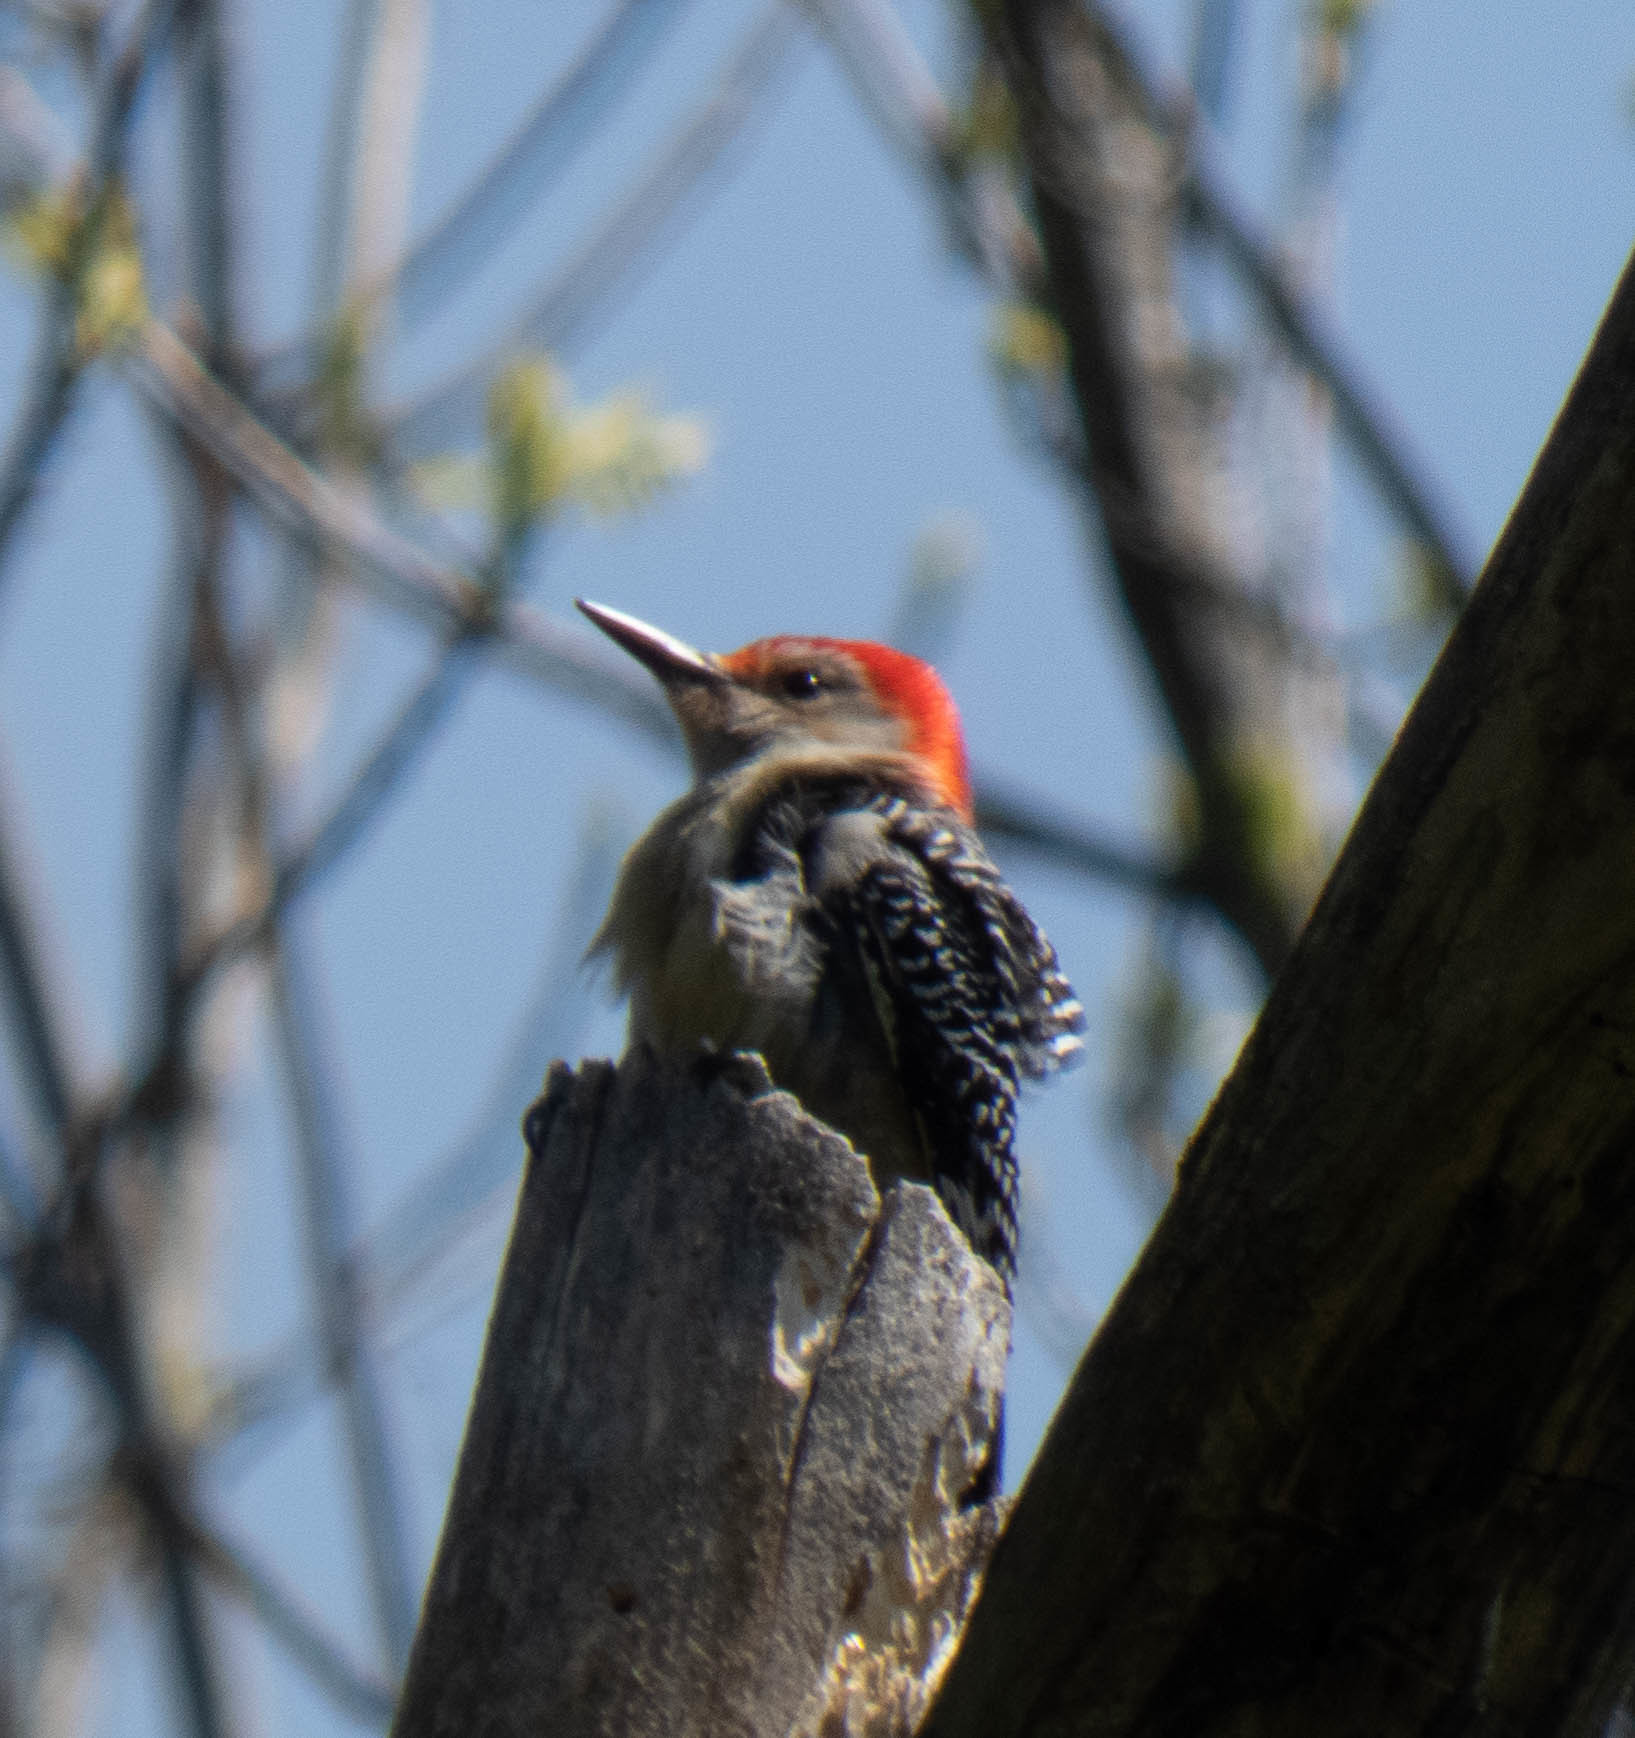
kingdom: Animalia
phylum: Chordata
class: Aves
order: Piciformes
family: Picidae
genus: Melanerpes
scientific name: Melanerpes carolinus
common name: Red-bellied woodpecker
